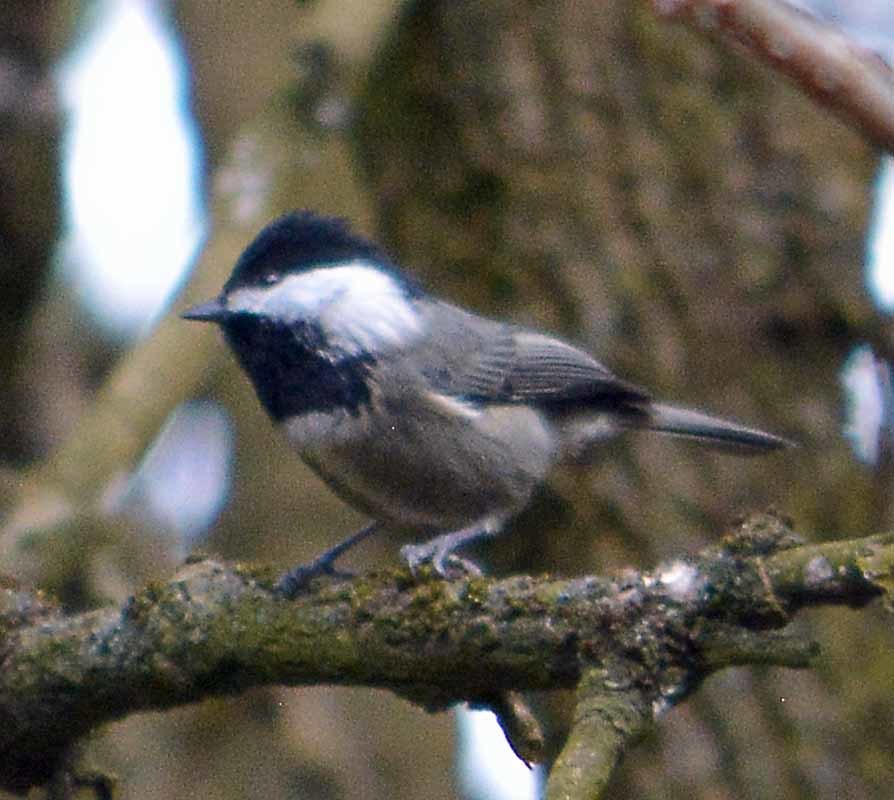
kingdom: Animalia
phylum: Chordata
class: Aves
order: Passeriformes
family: Paridae
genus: Poecile
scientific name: Poecile sclateri
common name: Mexican chickadee
